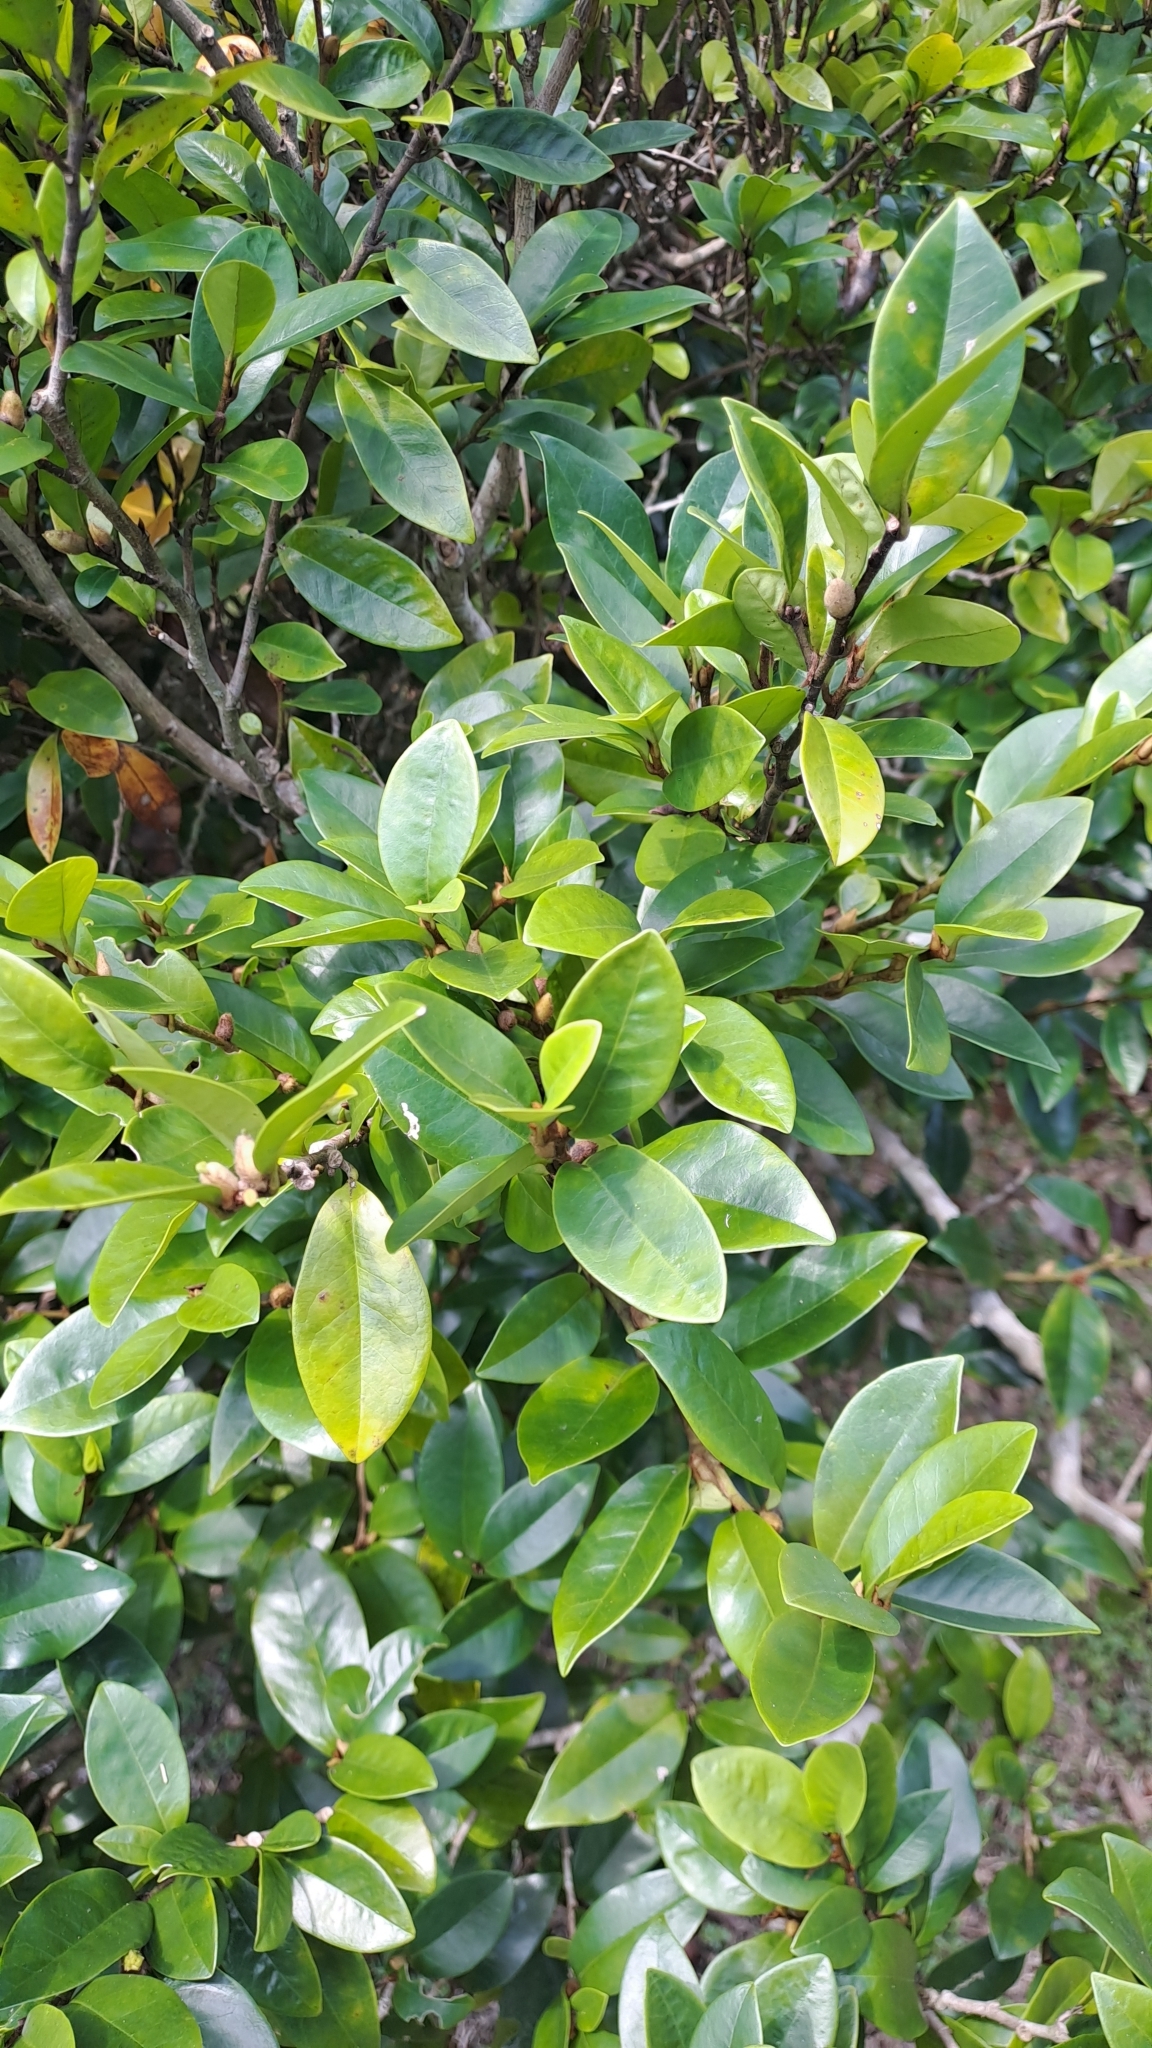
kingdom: Plantae
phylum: Tracheophyta
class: Magnoliopsida
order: Magnoliales
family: Magnoliaceae
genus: Magnolia
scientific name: Magnolia figo
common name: Banana shrub
